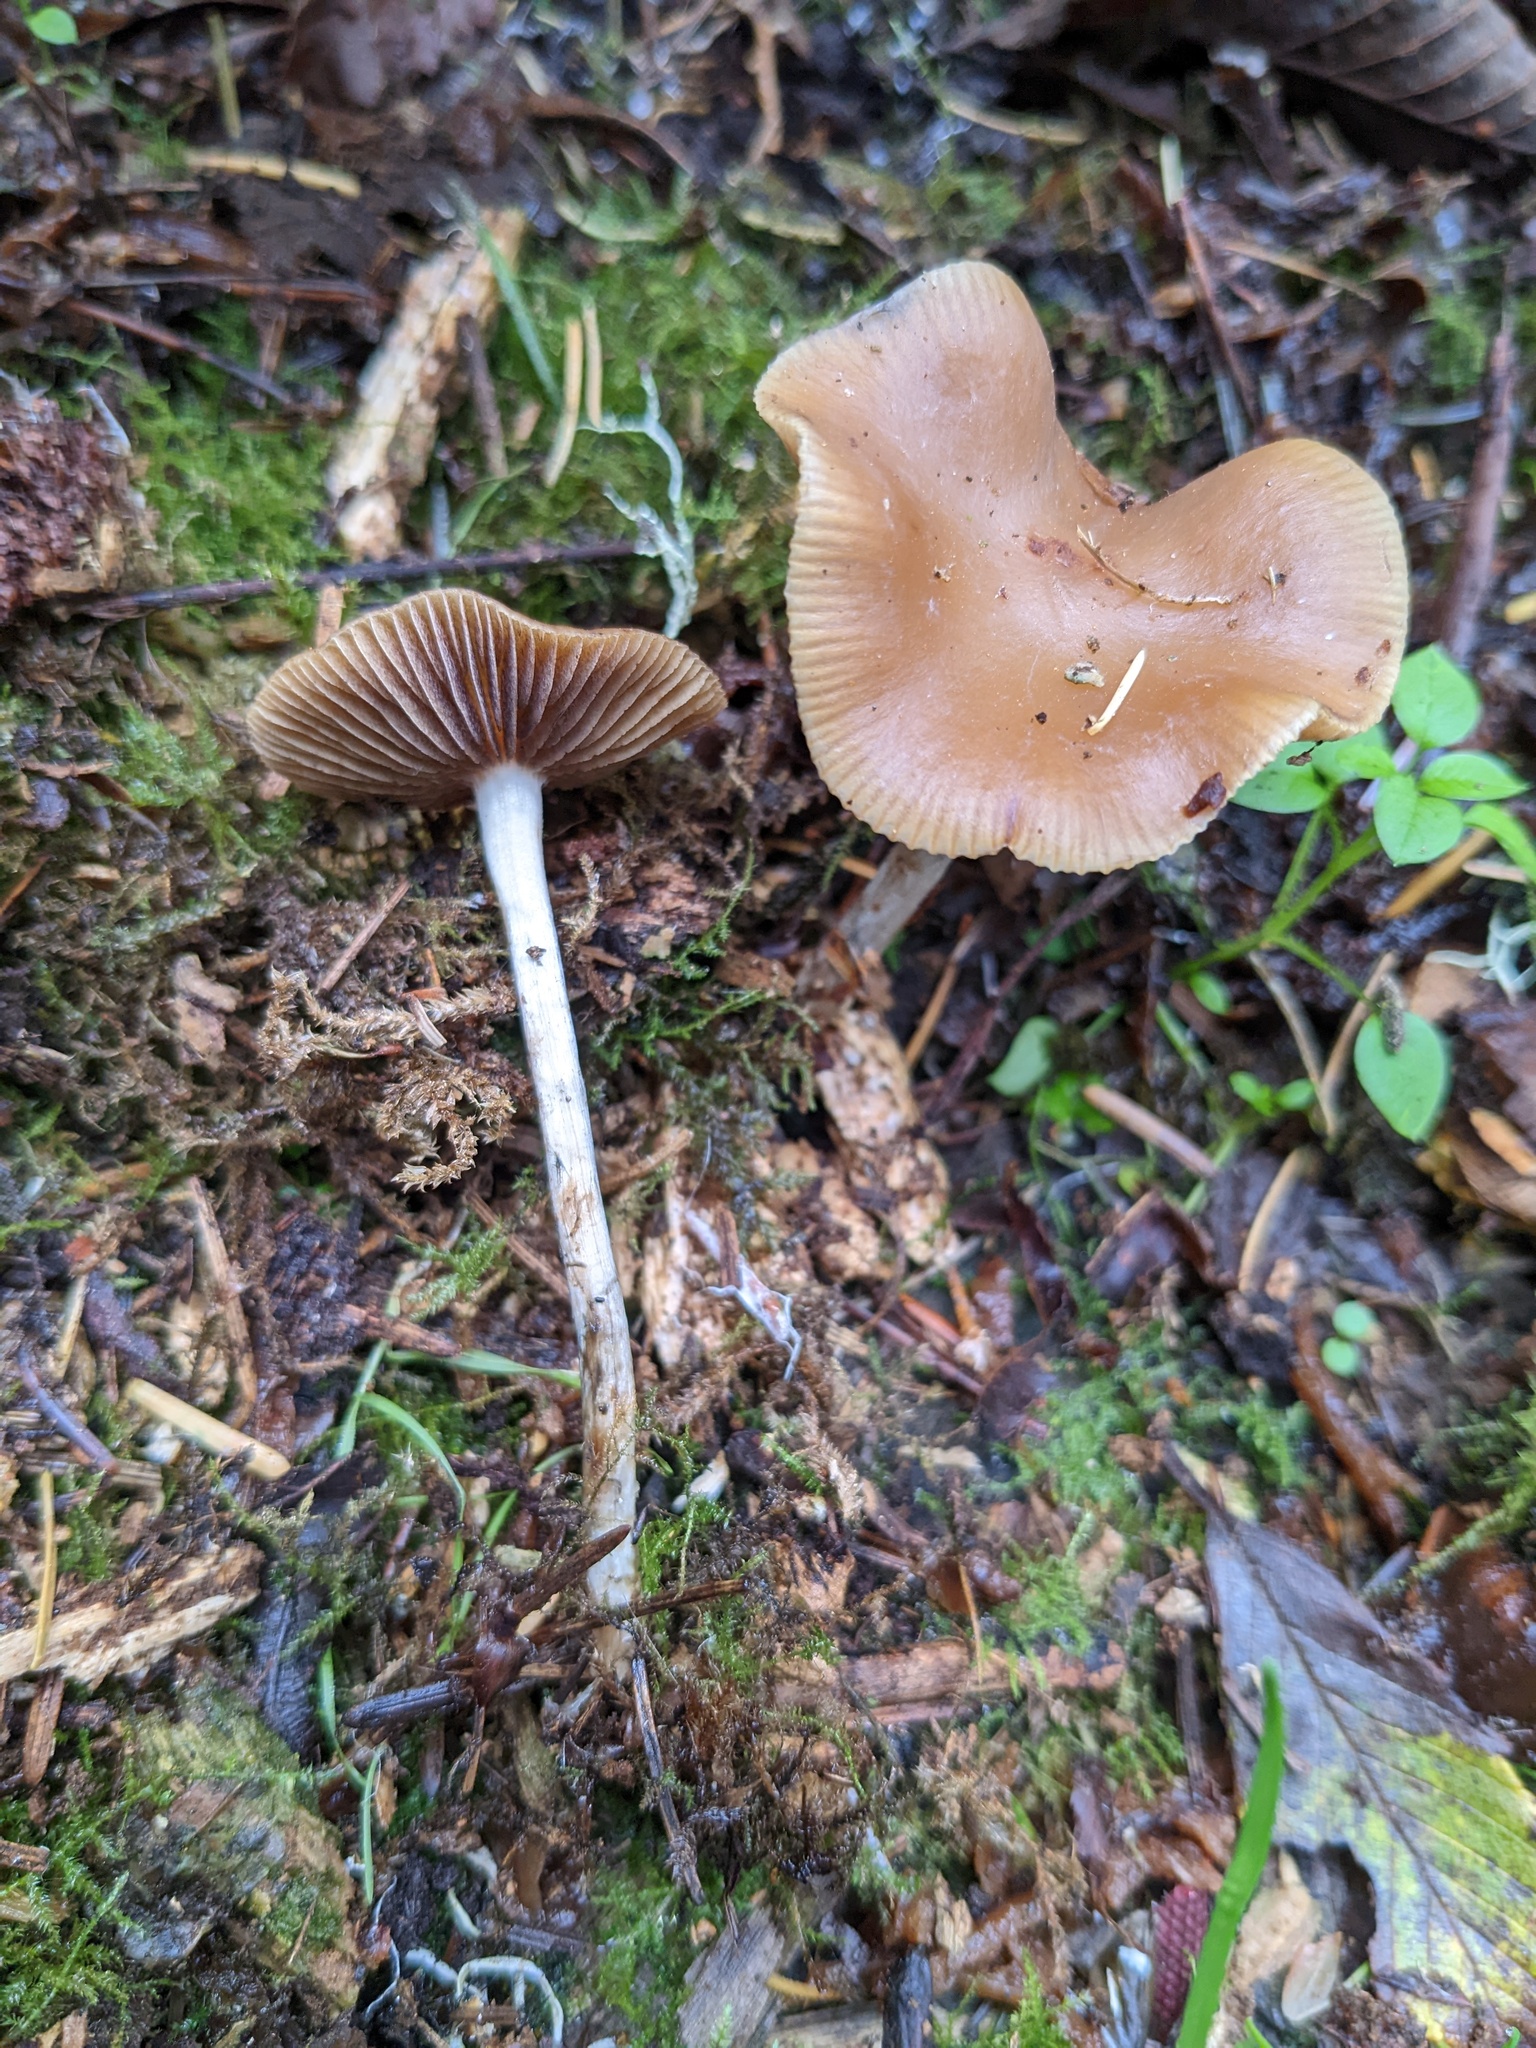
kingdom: Fungi
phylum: Basidiomycota
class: Agaricomycetes
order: Agaricales
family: Hymenogastraceae
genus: Psilocybe
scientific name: Psilocybe cyanescens
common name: Blueleg brownie
